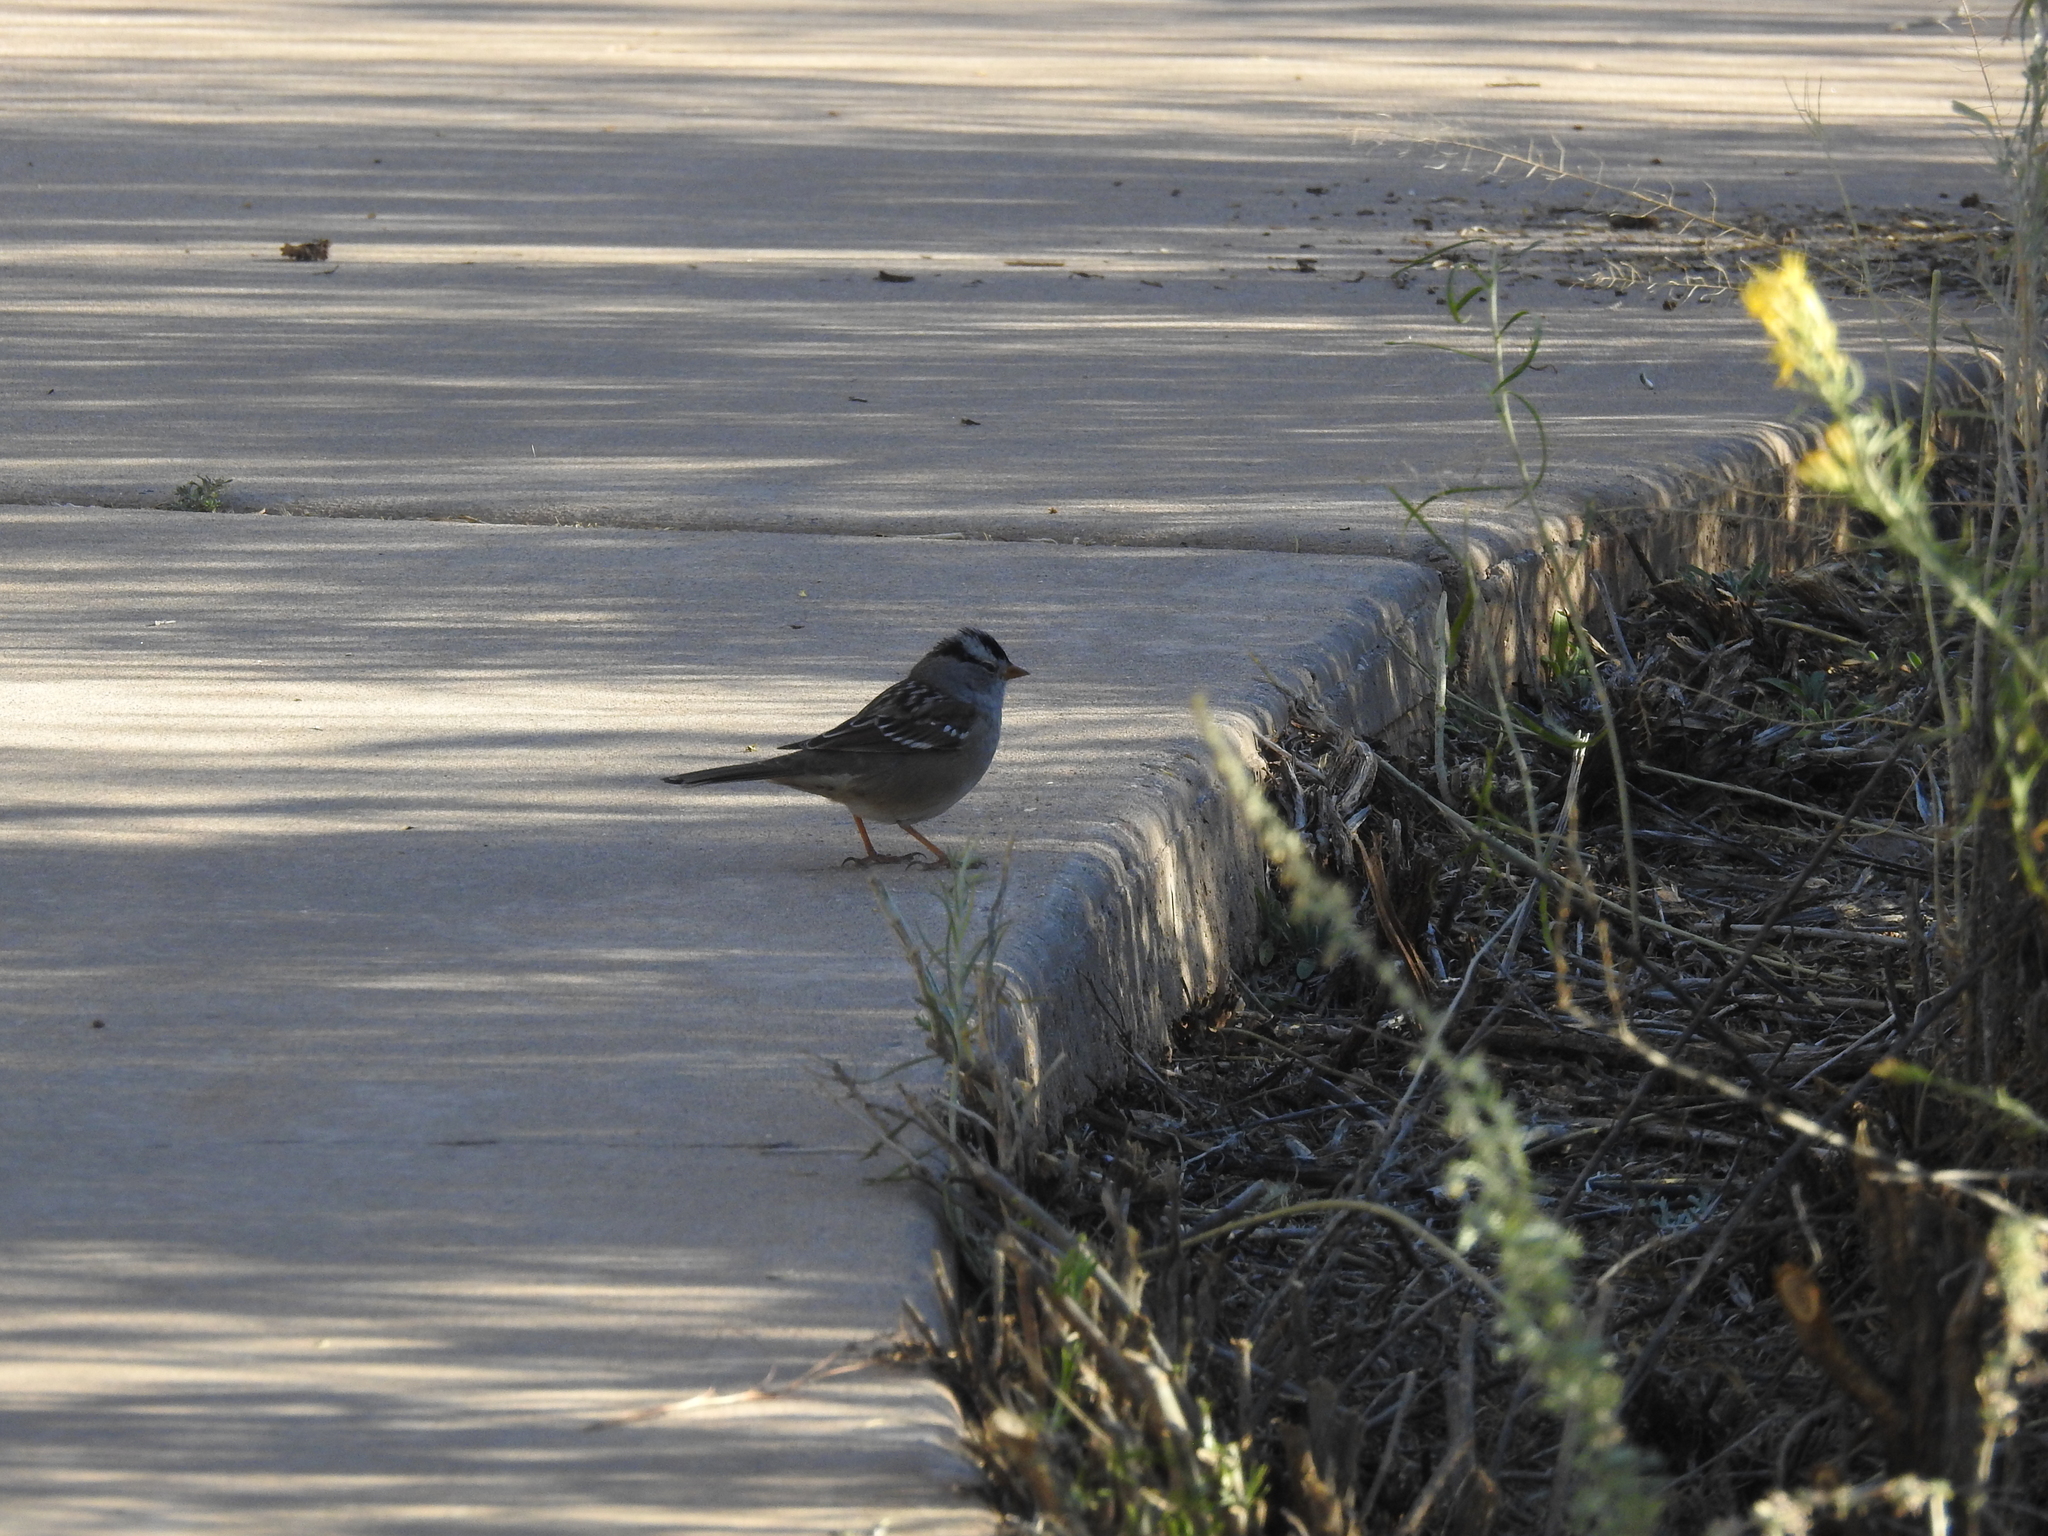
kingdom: Animalia
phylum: Chordata
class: Aves
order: Passeriformes
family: Passerellidae
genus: Zonotrichia
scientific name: Zonotrichia leucophrys
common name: White-crowned sparrow
